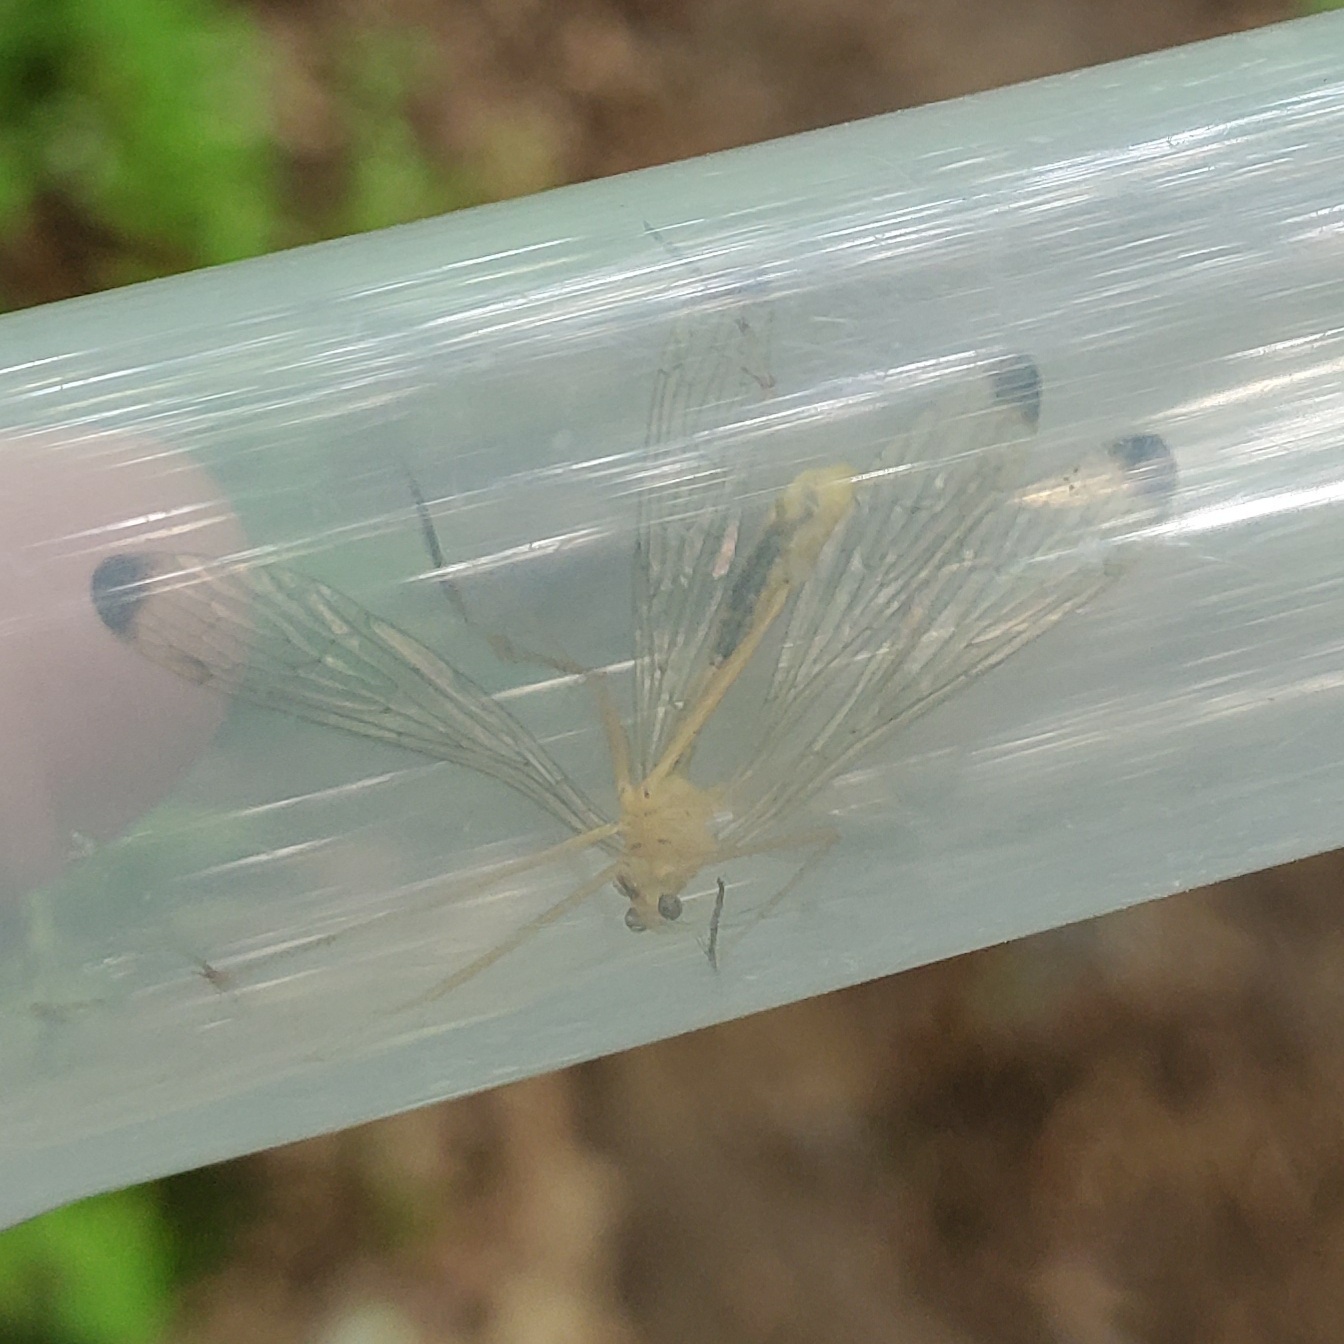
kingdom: Animalia
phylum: Arthropoda
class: Insecta
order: Mecoptera
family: Bittacidae
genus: Hylobittacus
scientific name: Hylobittacus apicalis
